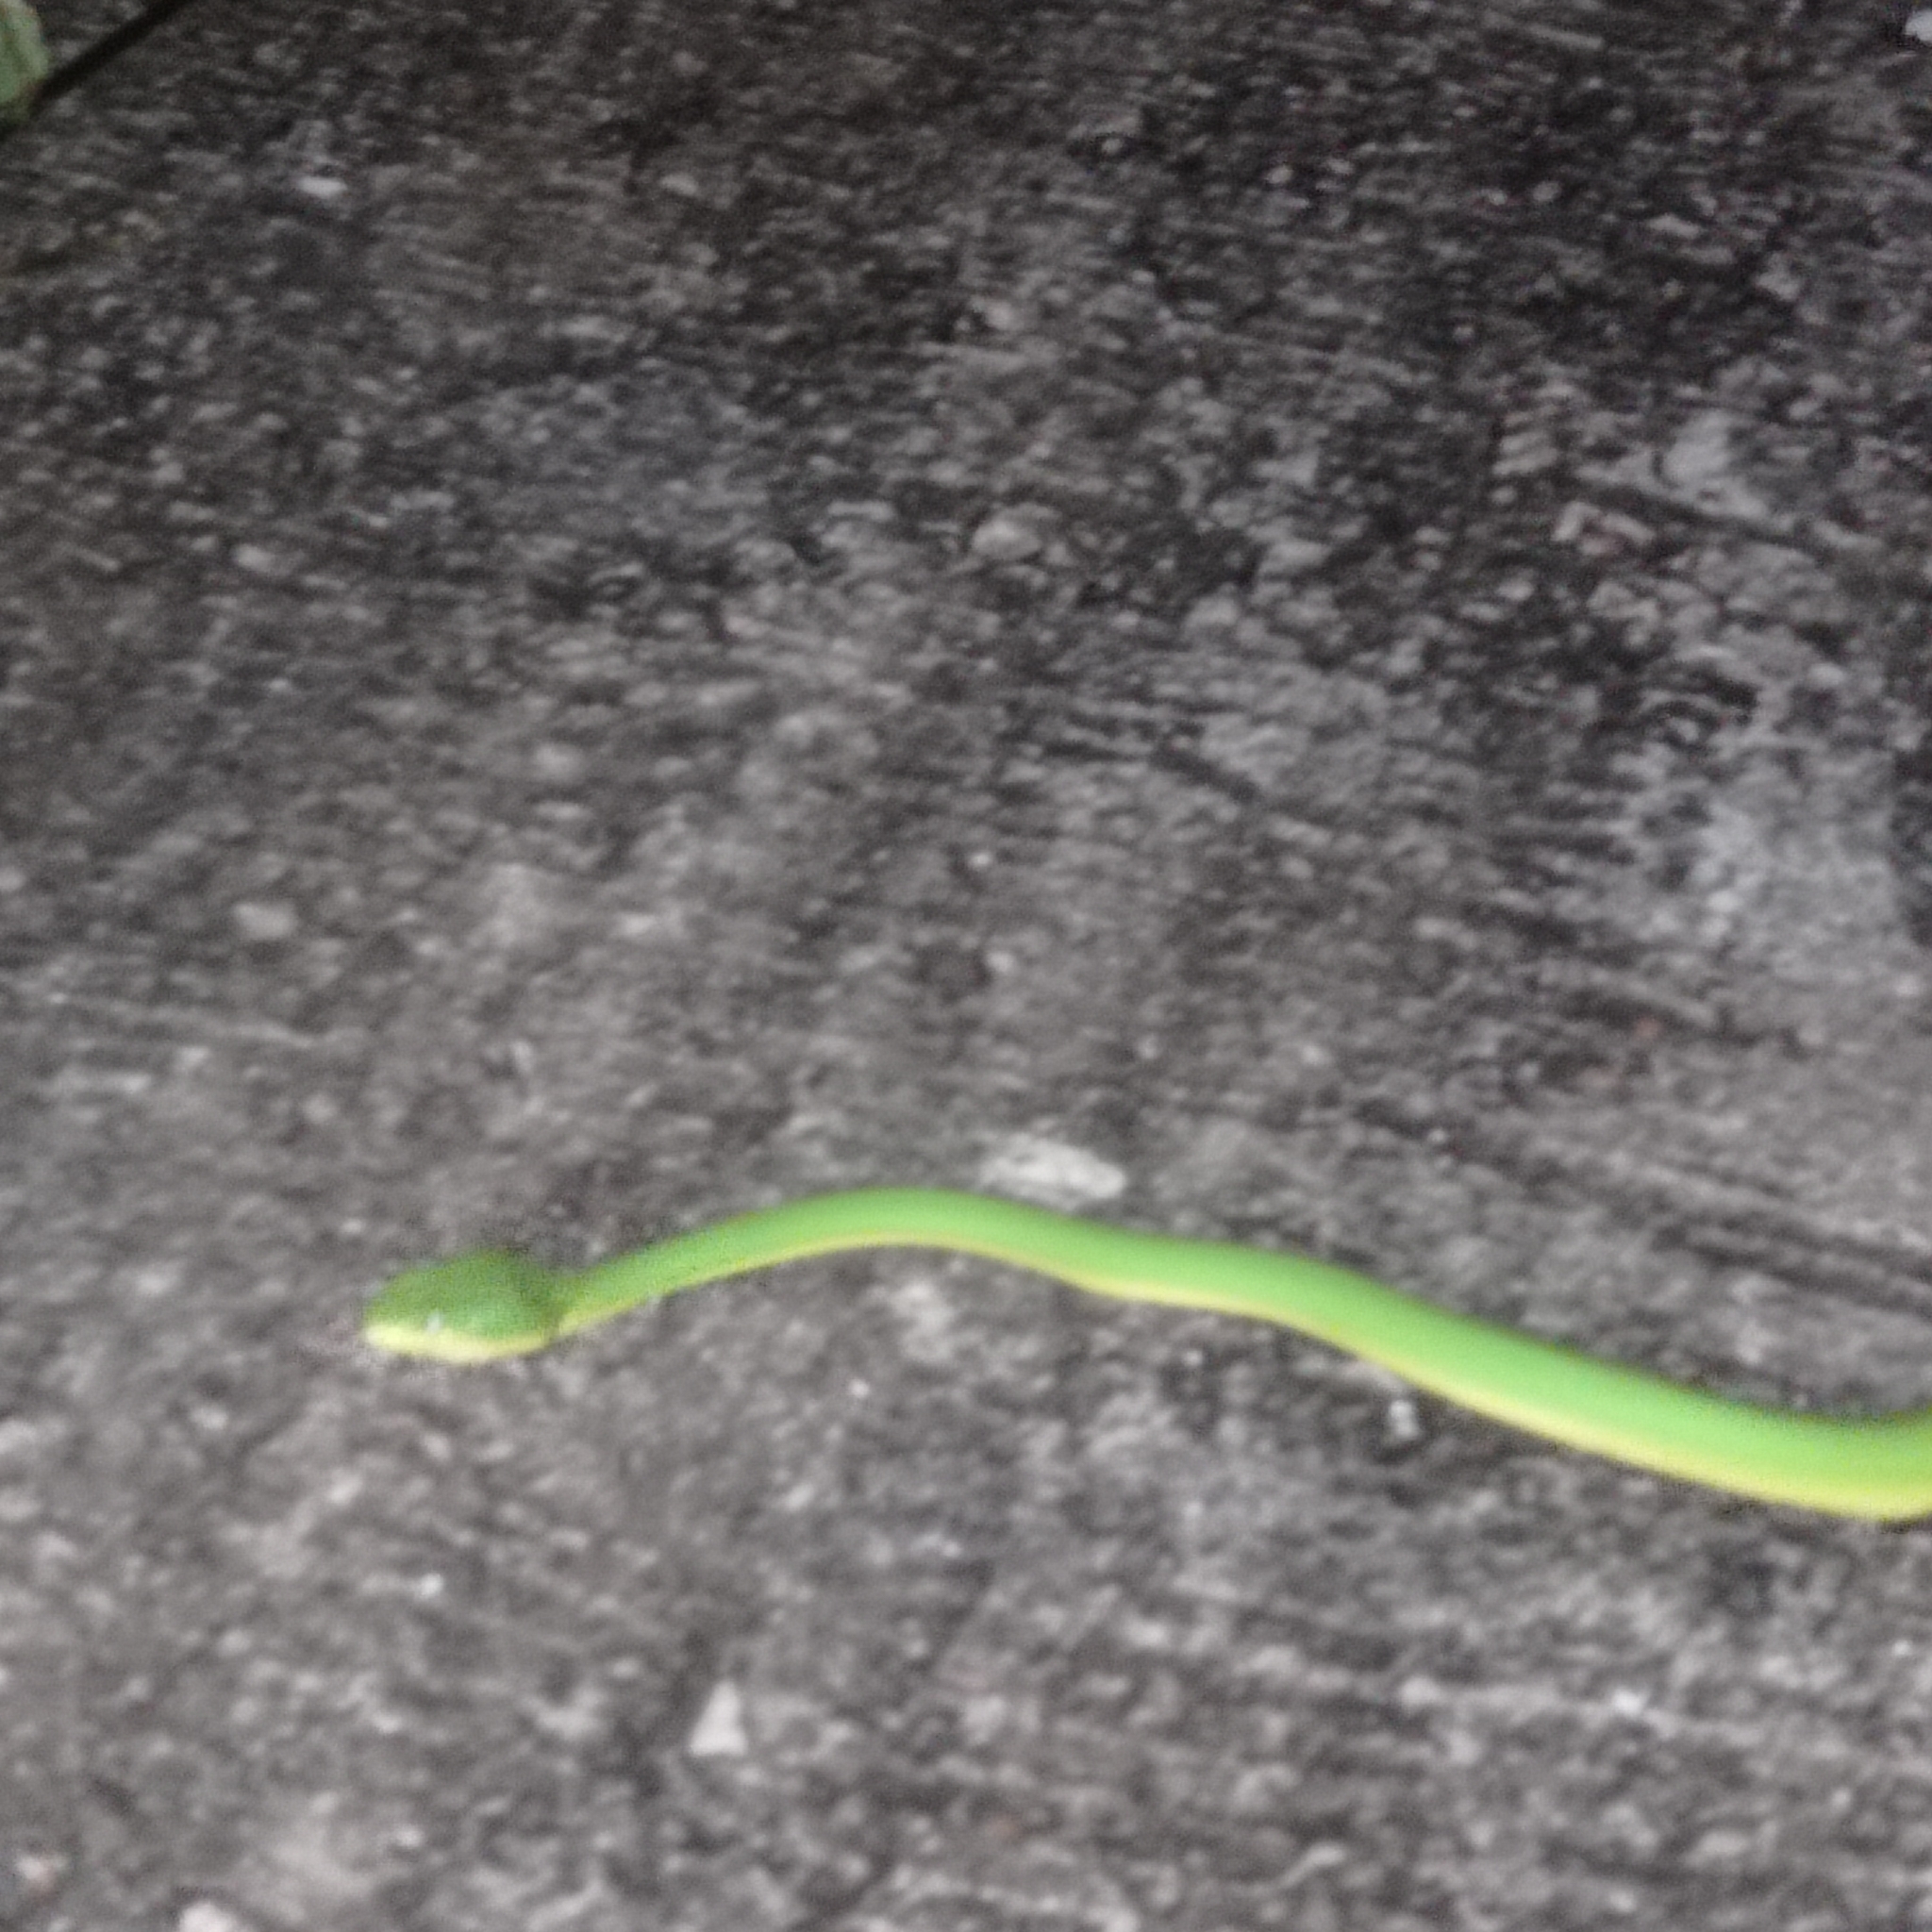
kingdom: Animalia
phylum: Chordata
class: Squamata
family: Viperidae
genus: Trimeresurus
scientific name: Trimeresurus albolabris
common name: White-lipped pitviper
